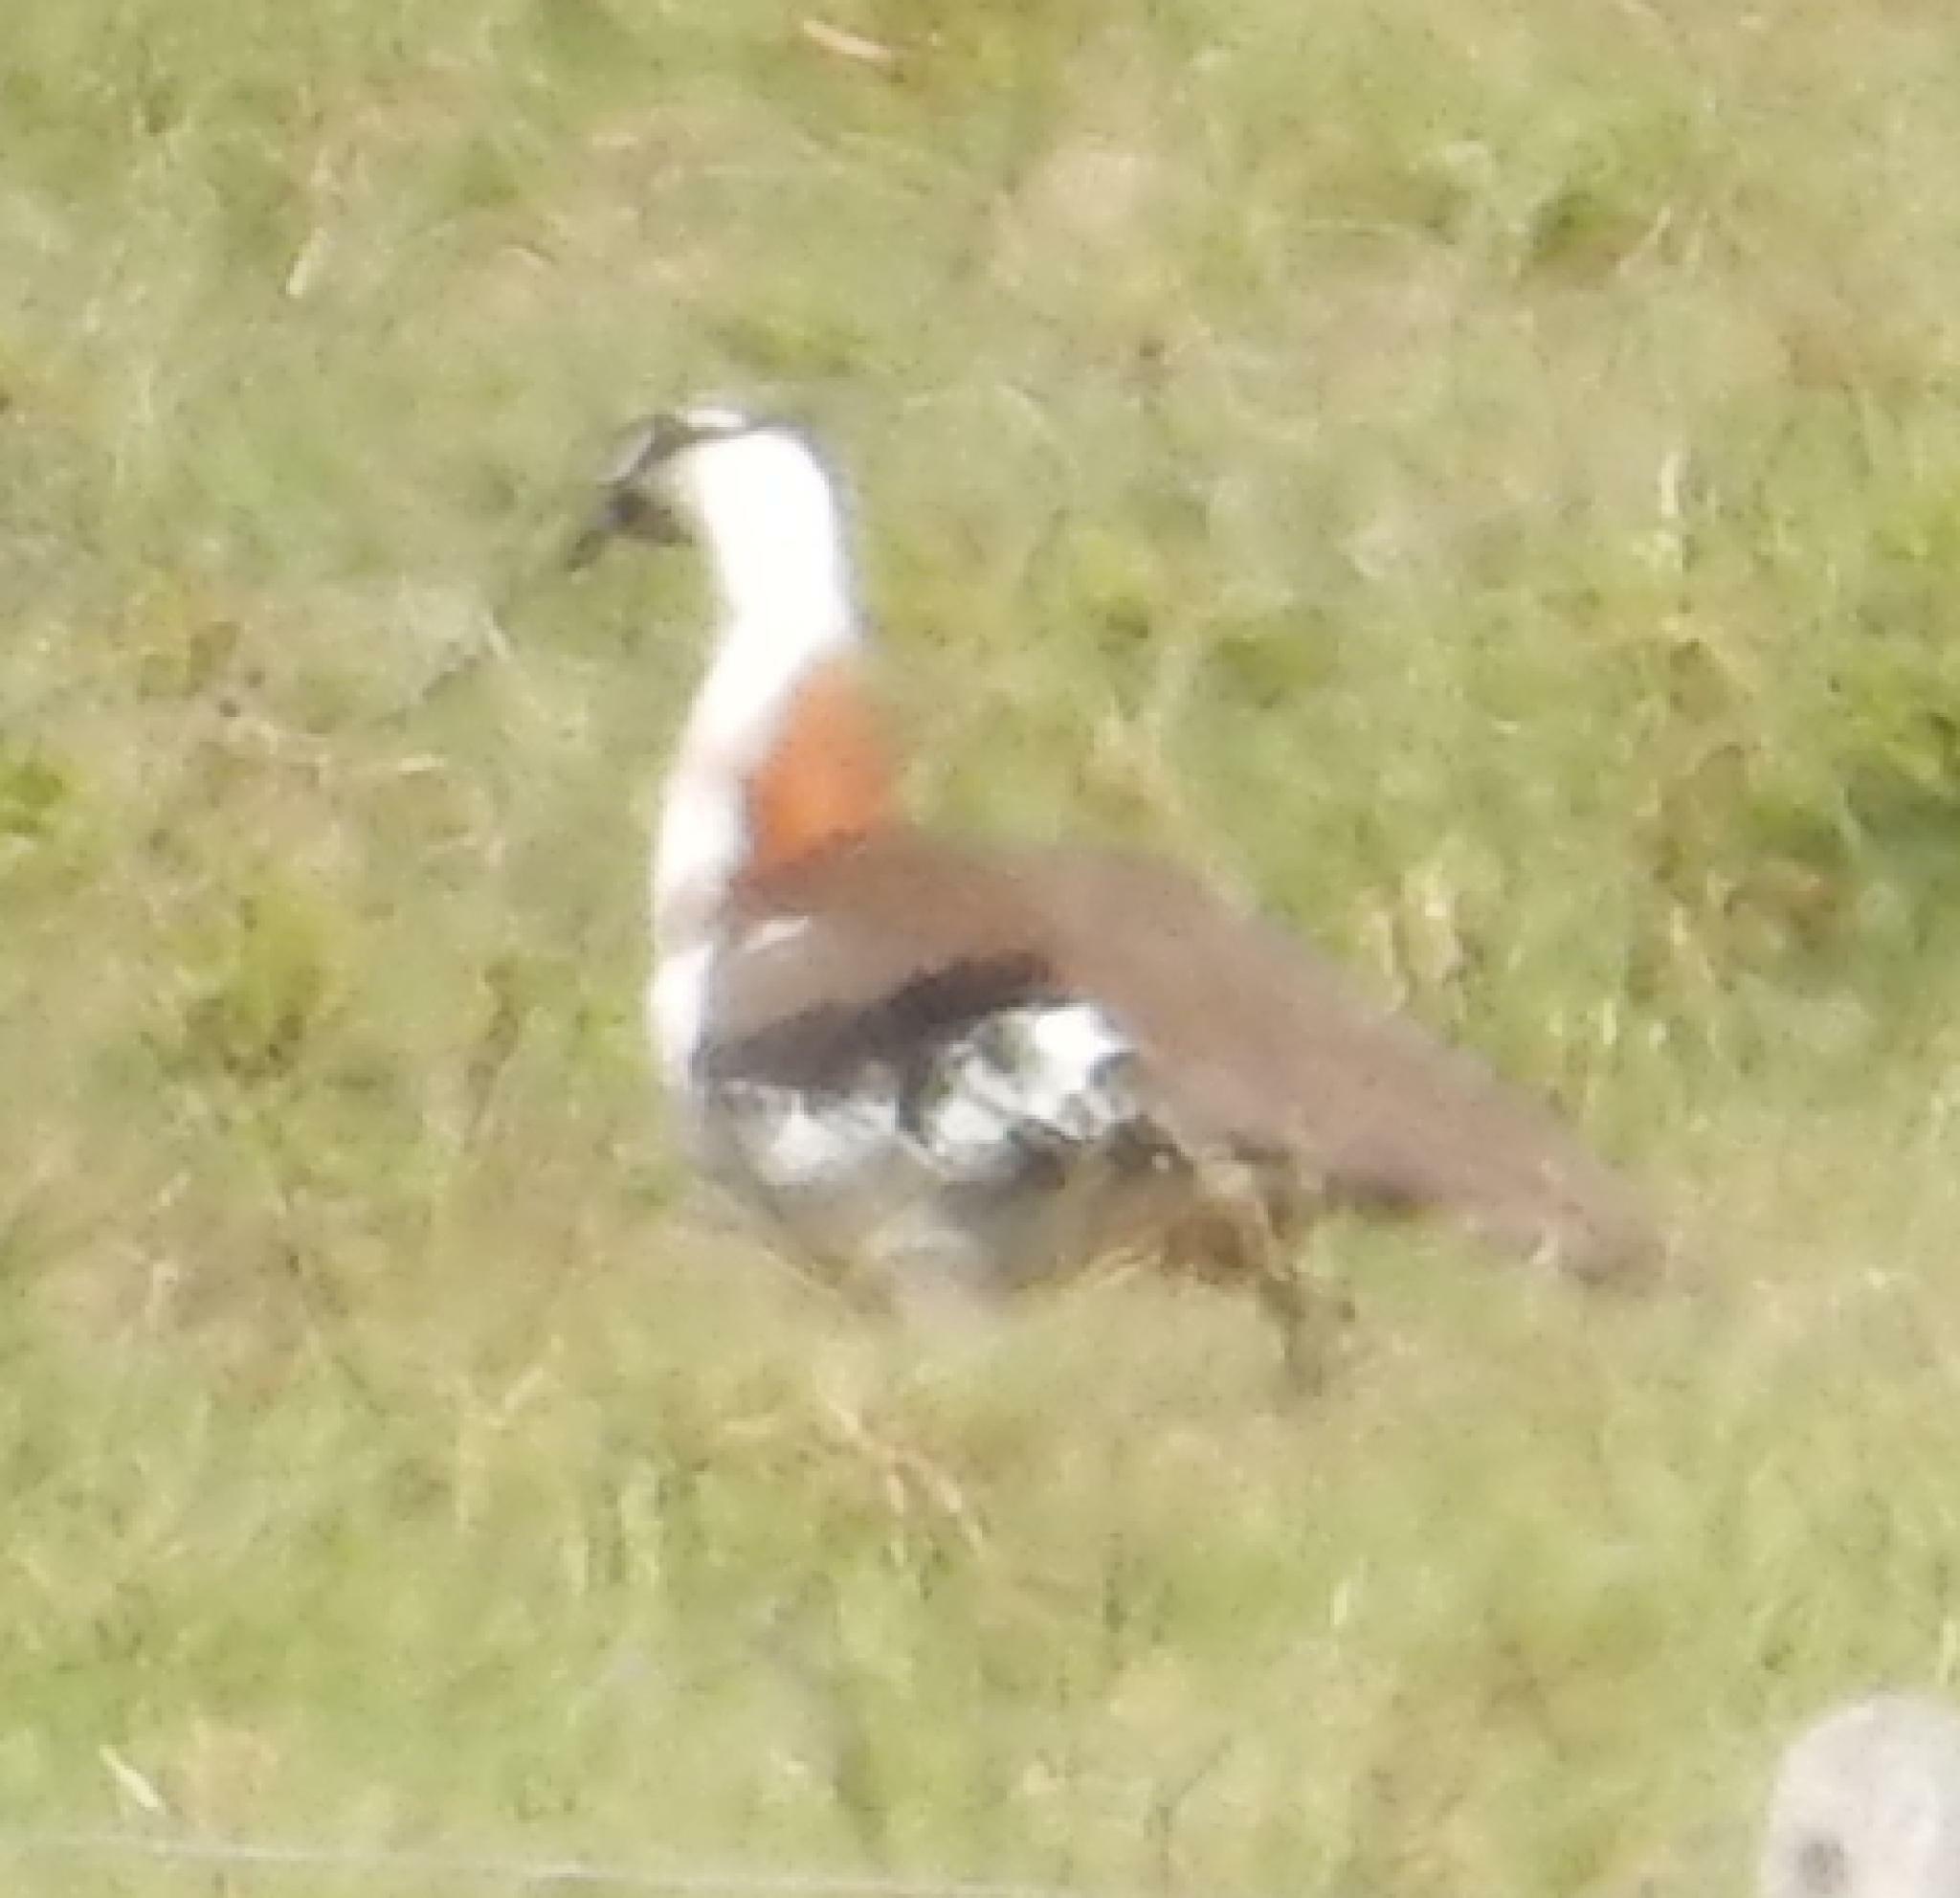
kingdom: Animalia
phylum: Chordata
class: Aves
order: Otidiformes
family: Otididae
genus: Neotis
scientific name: Neotis denhami
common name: Denham's bustard
